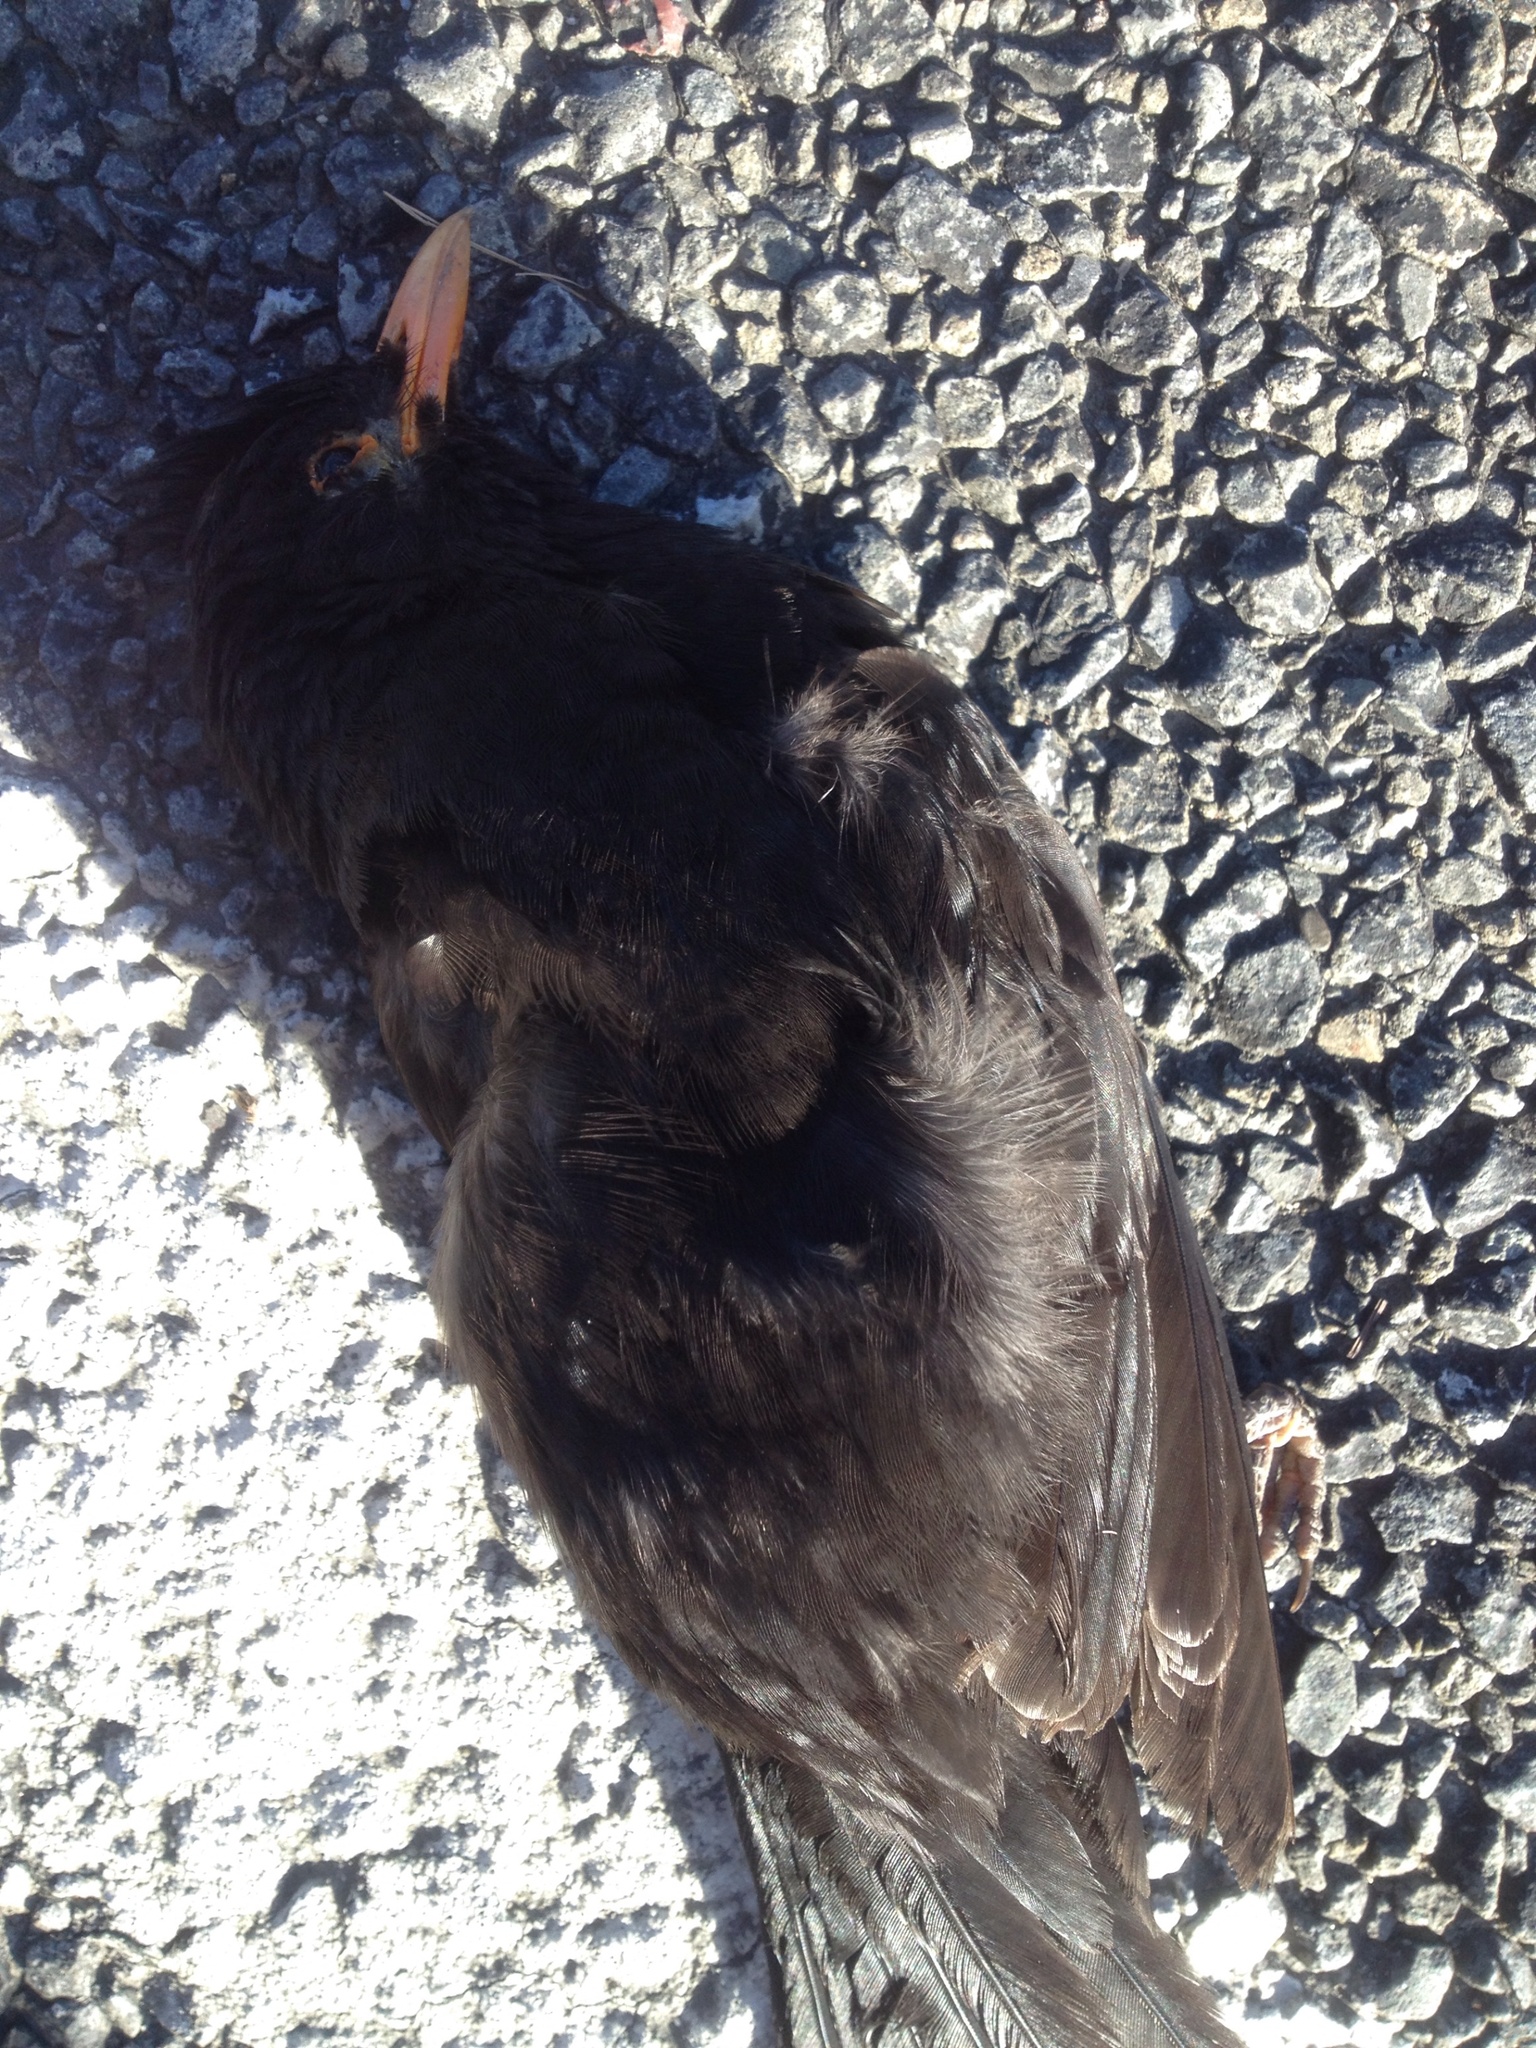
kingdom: Animalia
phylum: Chordata
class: Aves
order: Passeriformes
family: Turdidae
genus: Turdus
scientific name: Turdus merula
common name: Common blackbird
